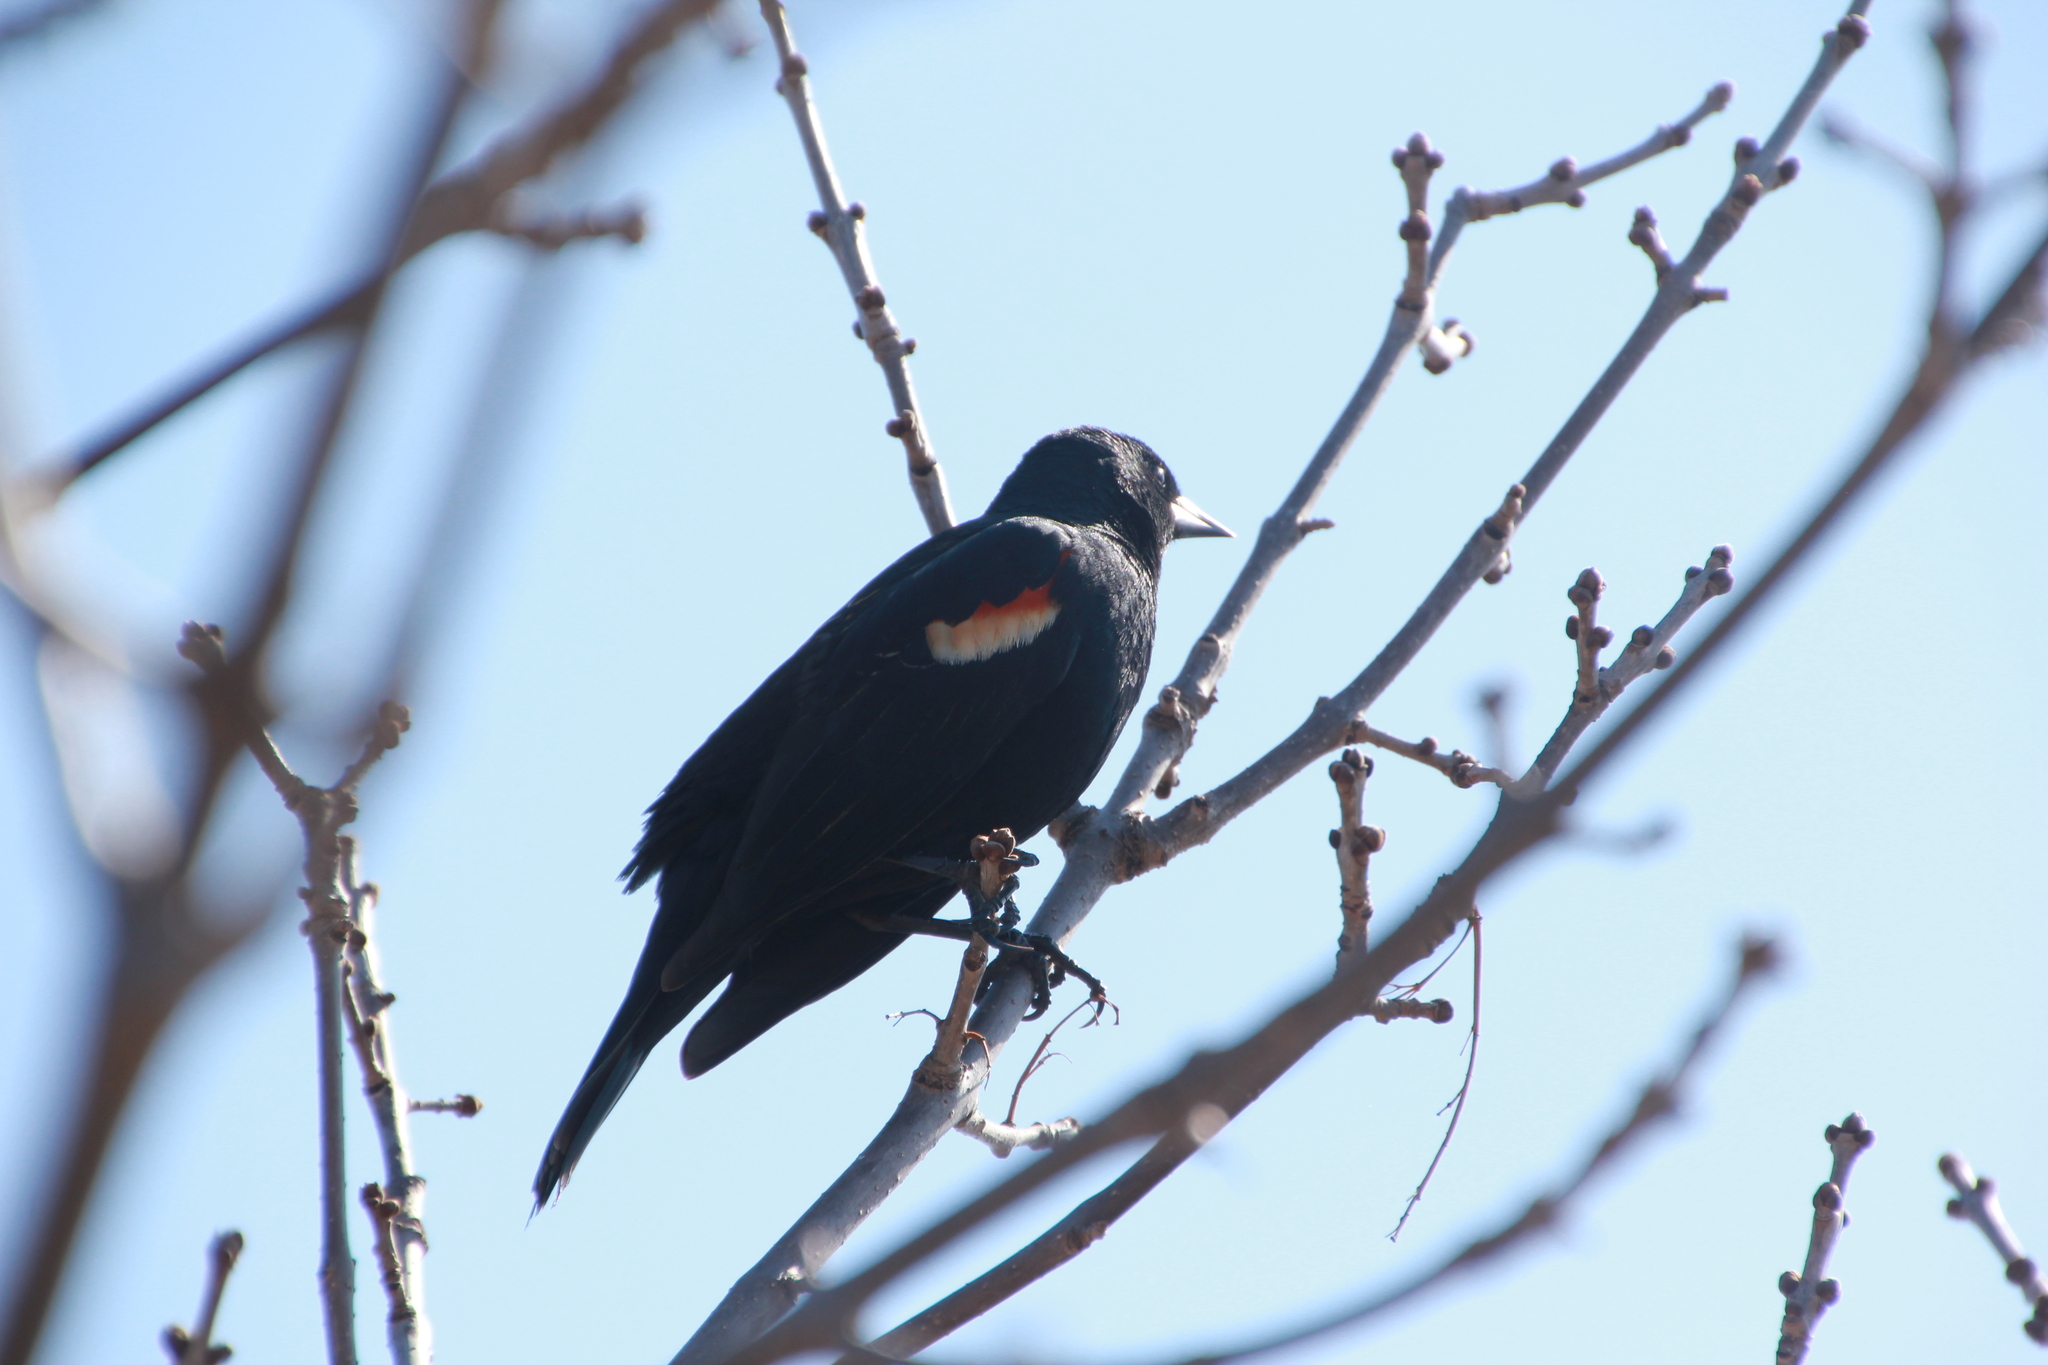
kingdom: Animalia
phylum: Chordata
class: Aves
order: Passeriformes
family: Icteridae
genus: Agelaius
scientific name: Agelaius phoeniceus
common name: Red-winged blackbird
